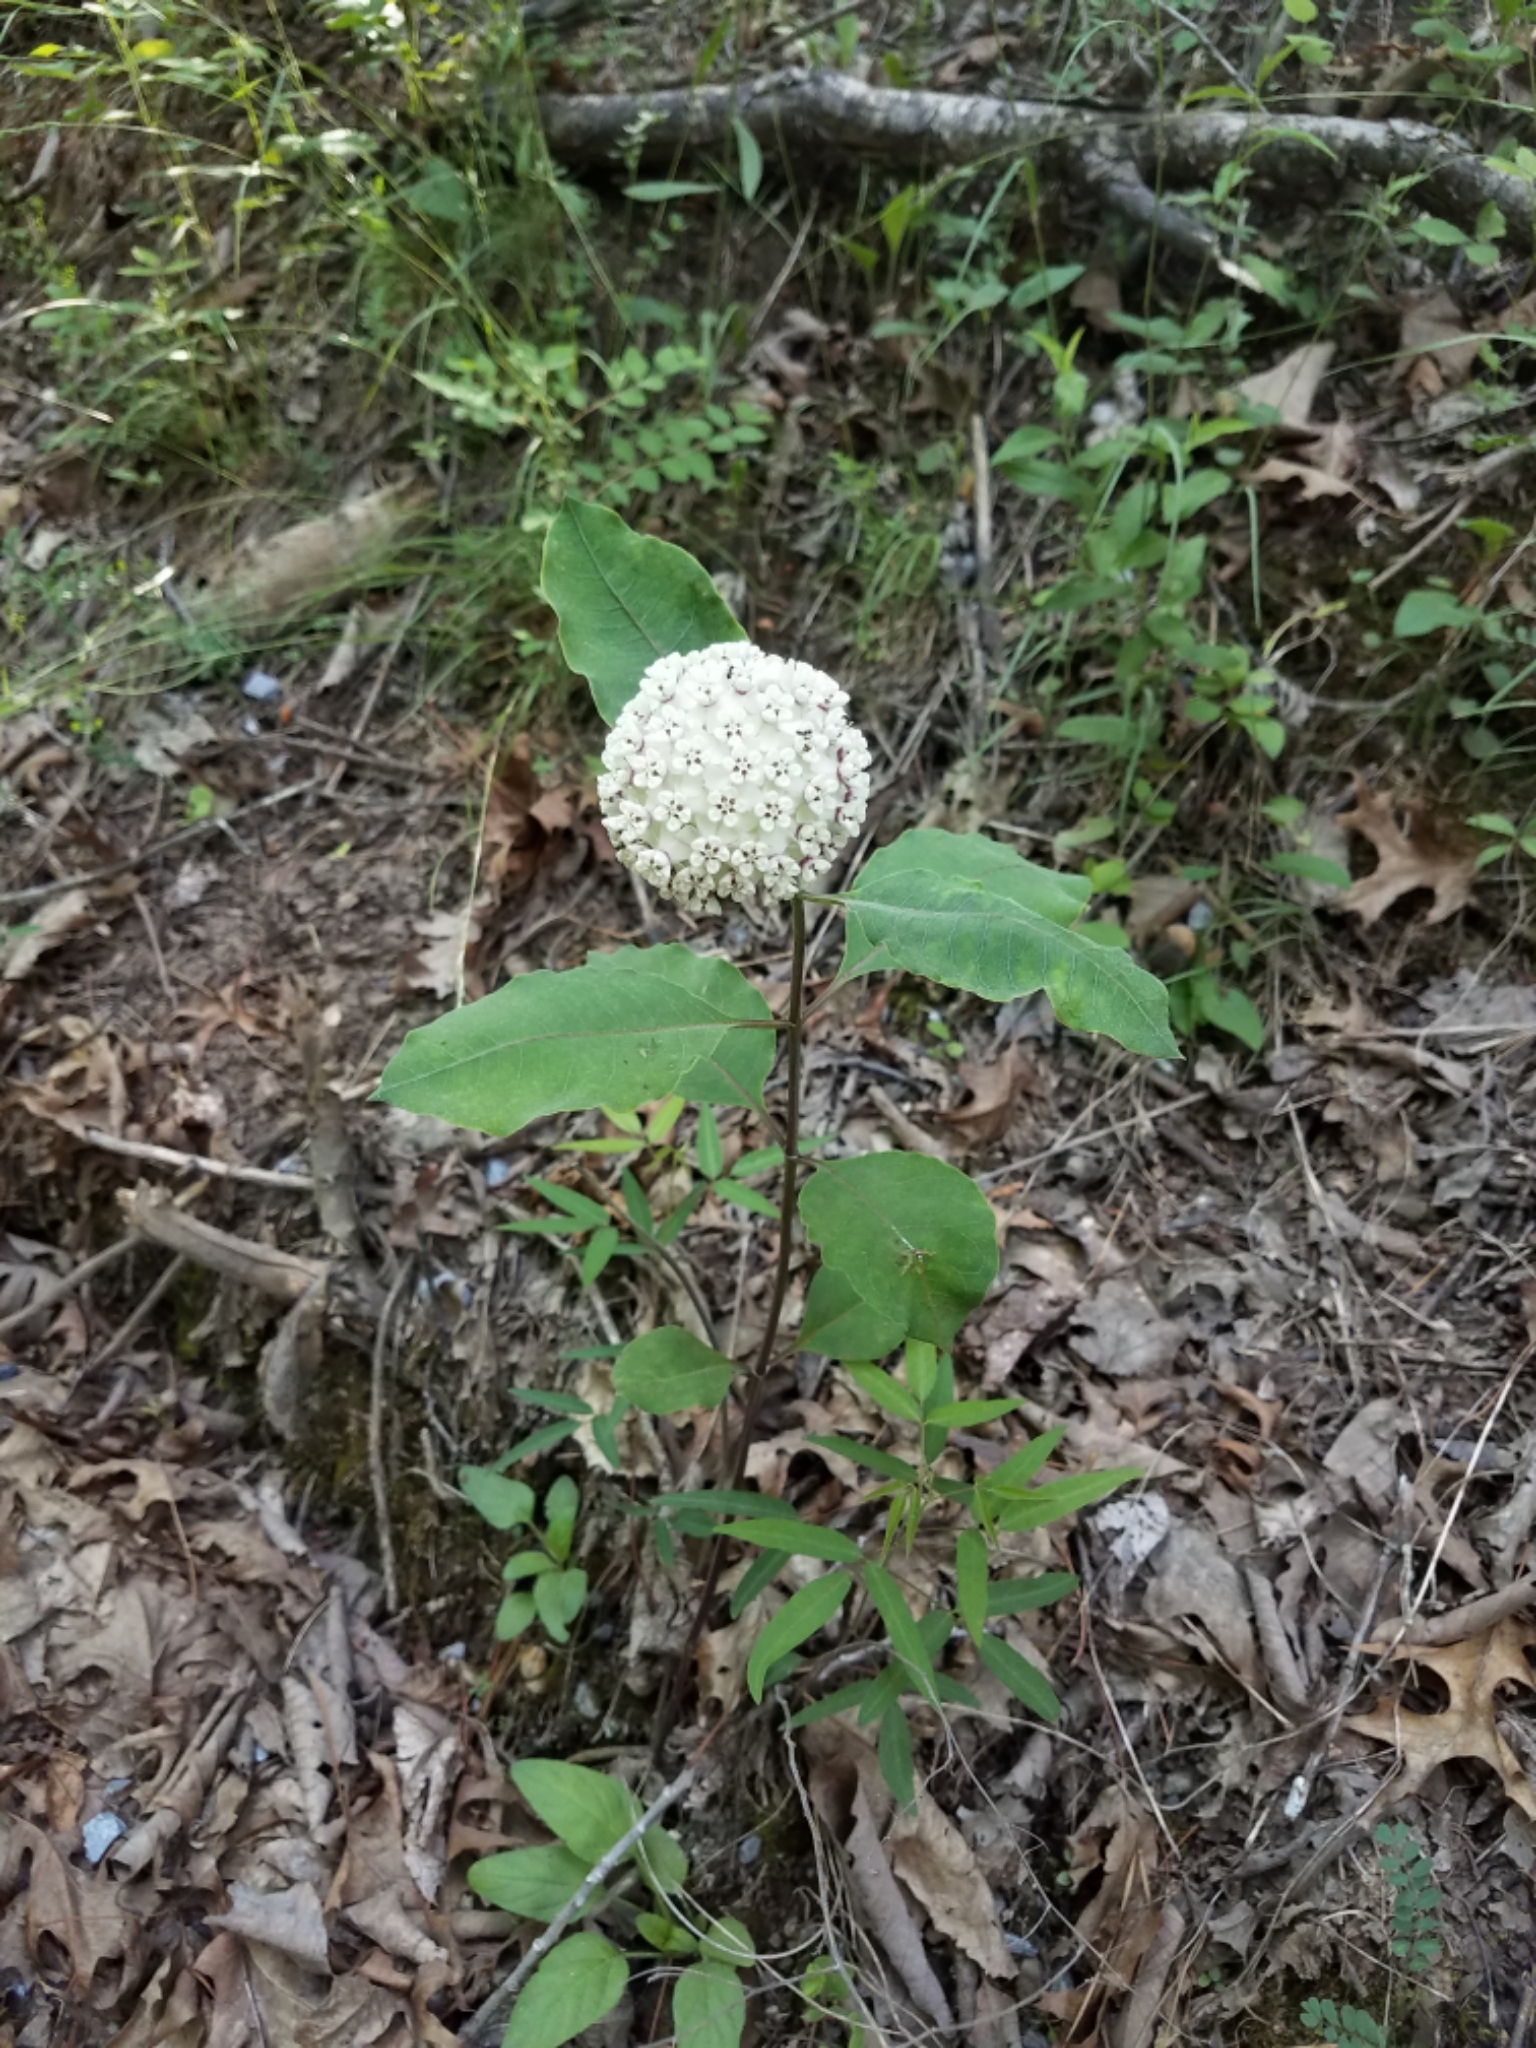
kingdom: Plantae
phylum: Tracheophyta
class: Magnoliopsida
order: Gentianales
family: Apocynaceae
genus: Asclepias
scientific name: Asclepias variegata
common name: Variegated milkweed
